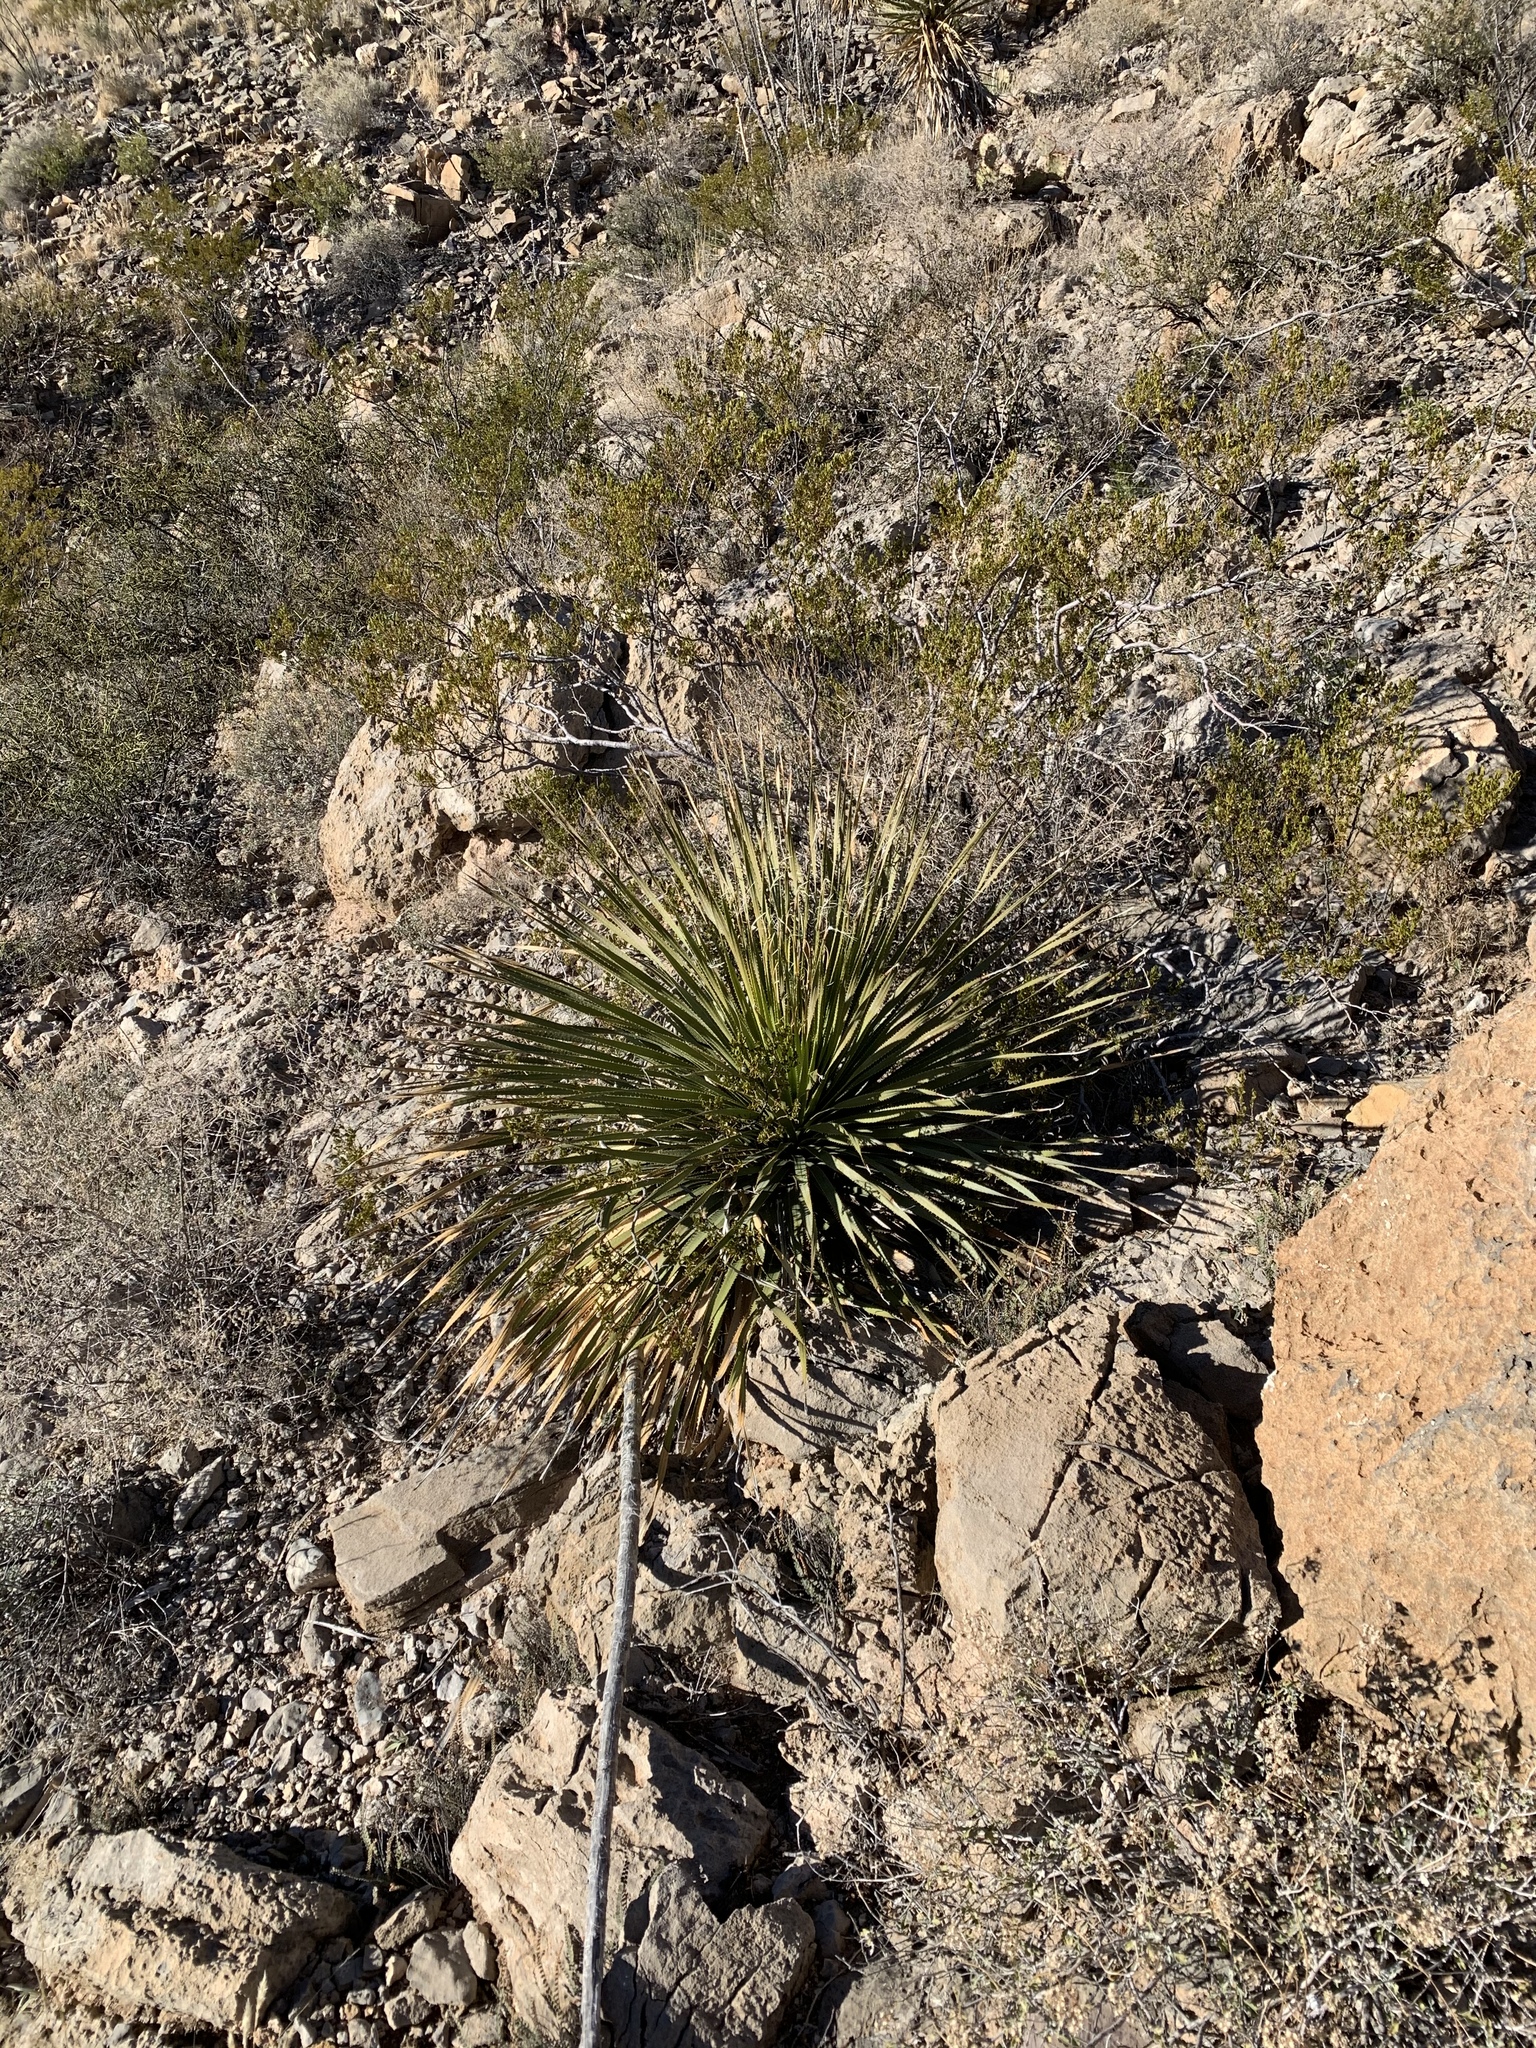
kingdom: Plantae
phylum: Tracheophyta
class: Liliopsida
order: Asparagales
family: Asparagaceae
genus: Dasylirion
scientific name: Dasylirion wheeleri
